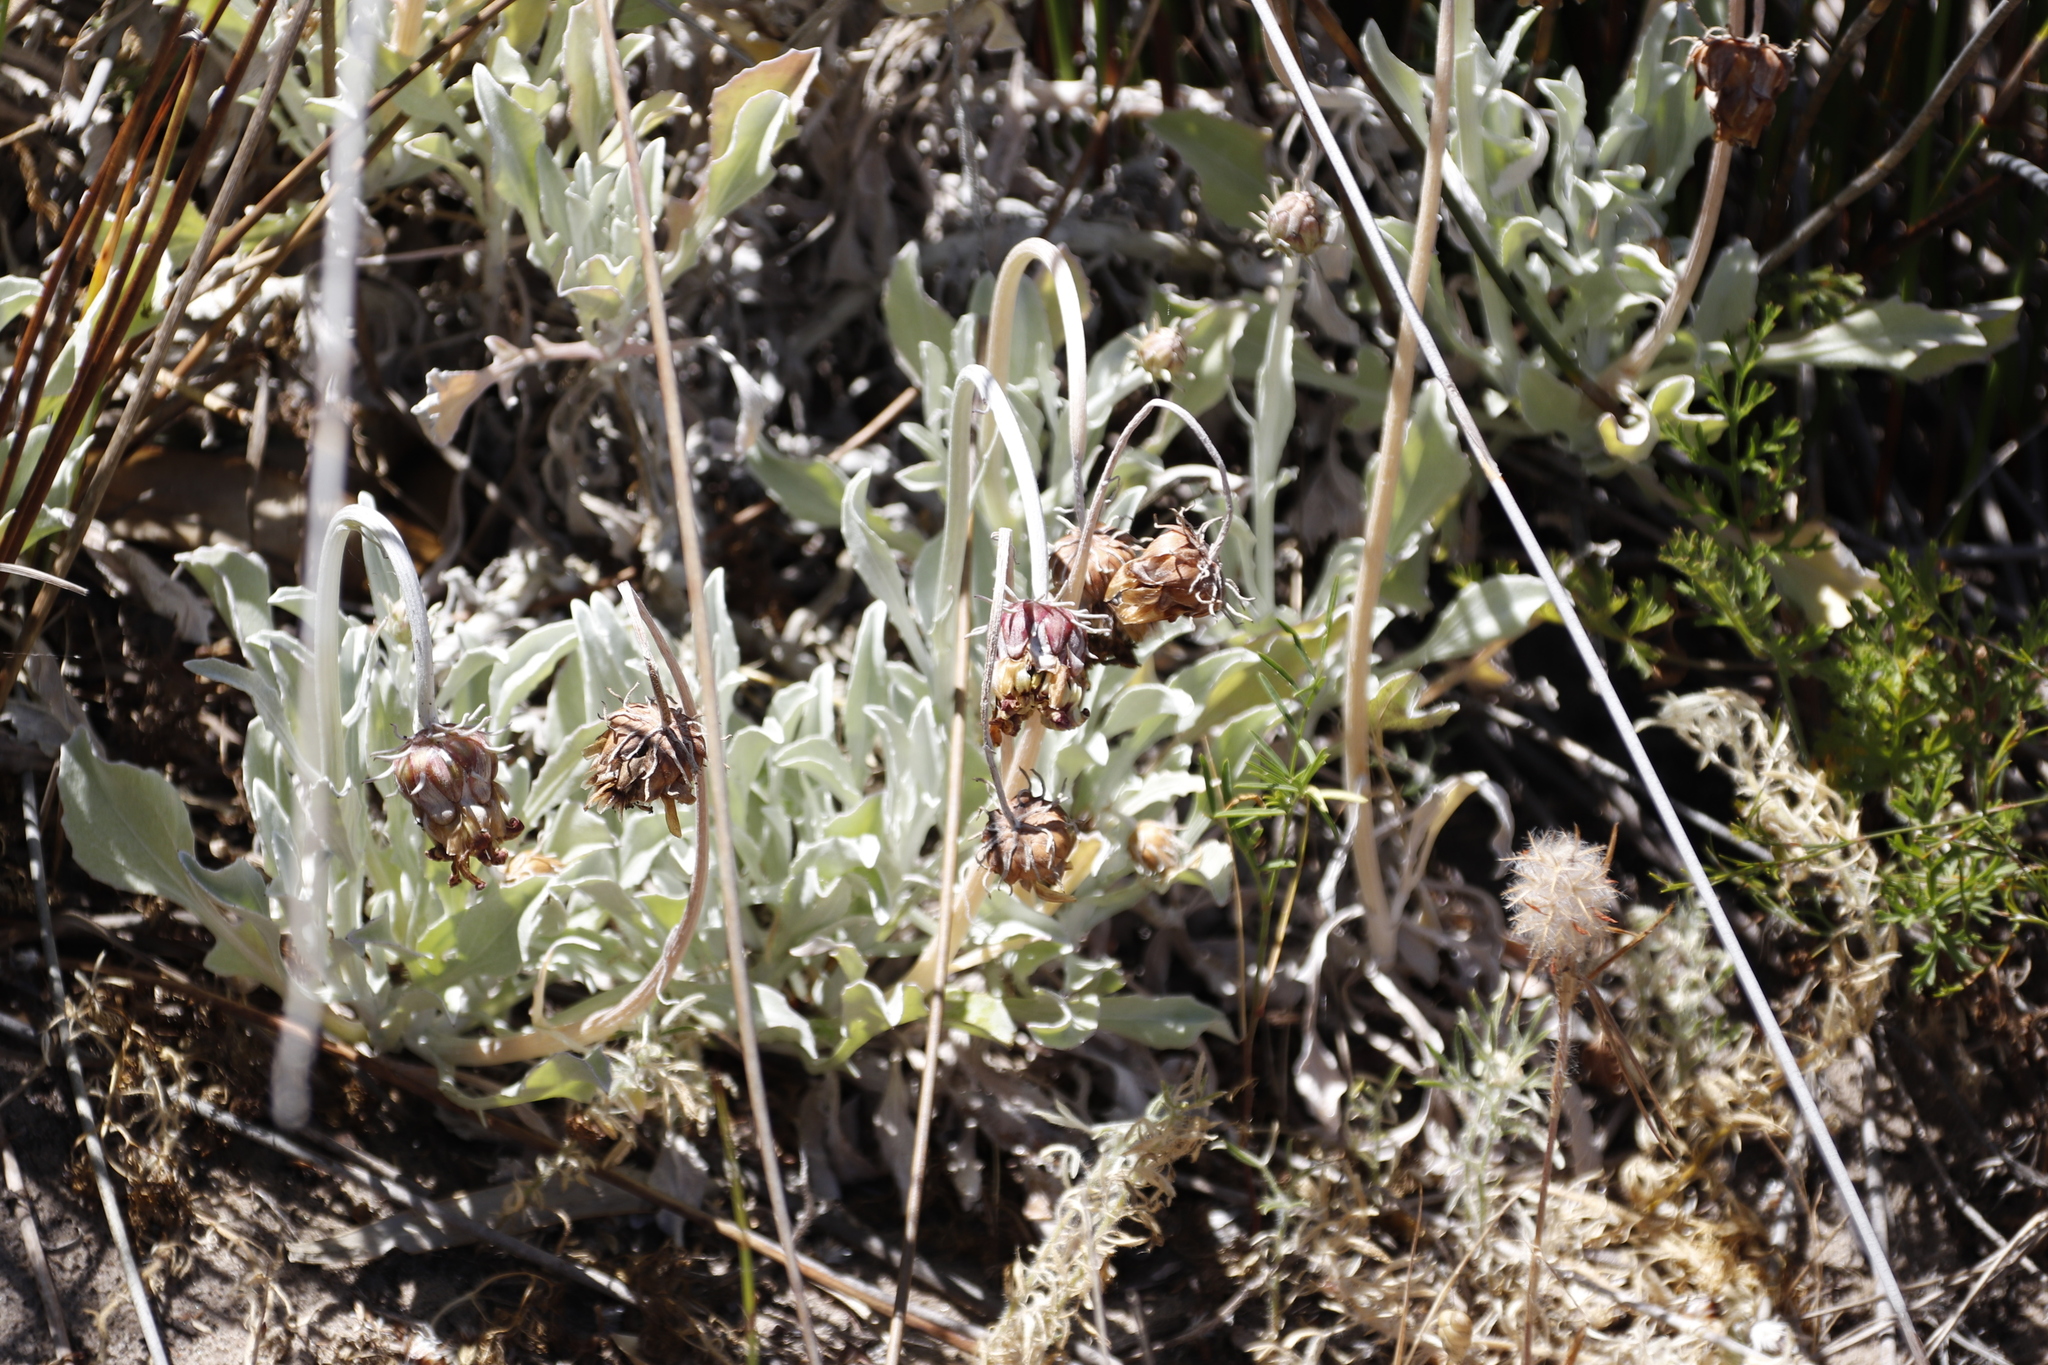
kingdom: Plantae
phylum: Tracheophyta
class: Magnoliopsida
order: Asterales
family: Asteraceae
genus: Arctotis
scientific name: Arctotis stoechadifolia
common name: African daisy
